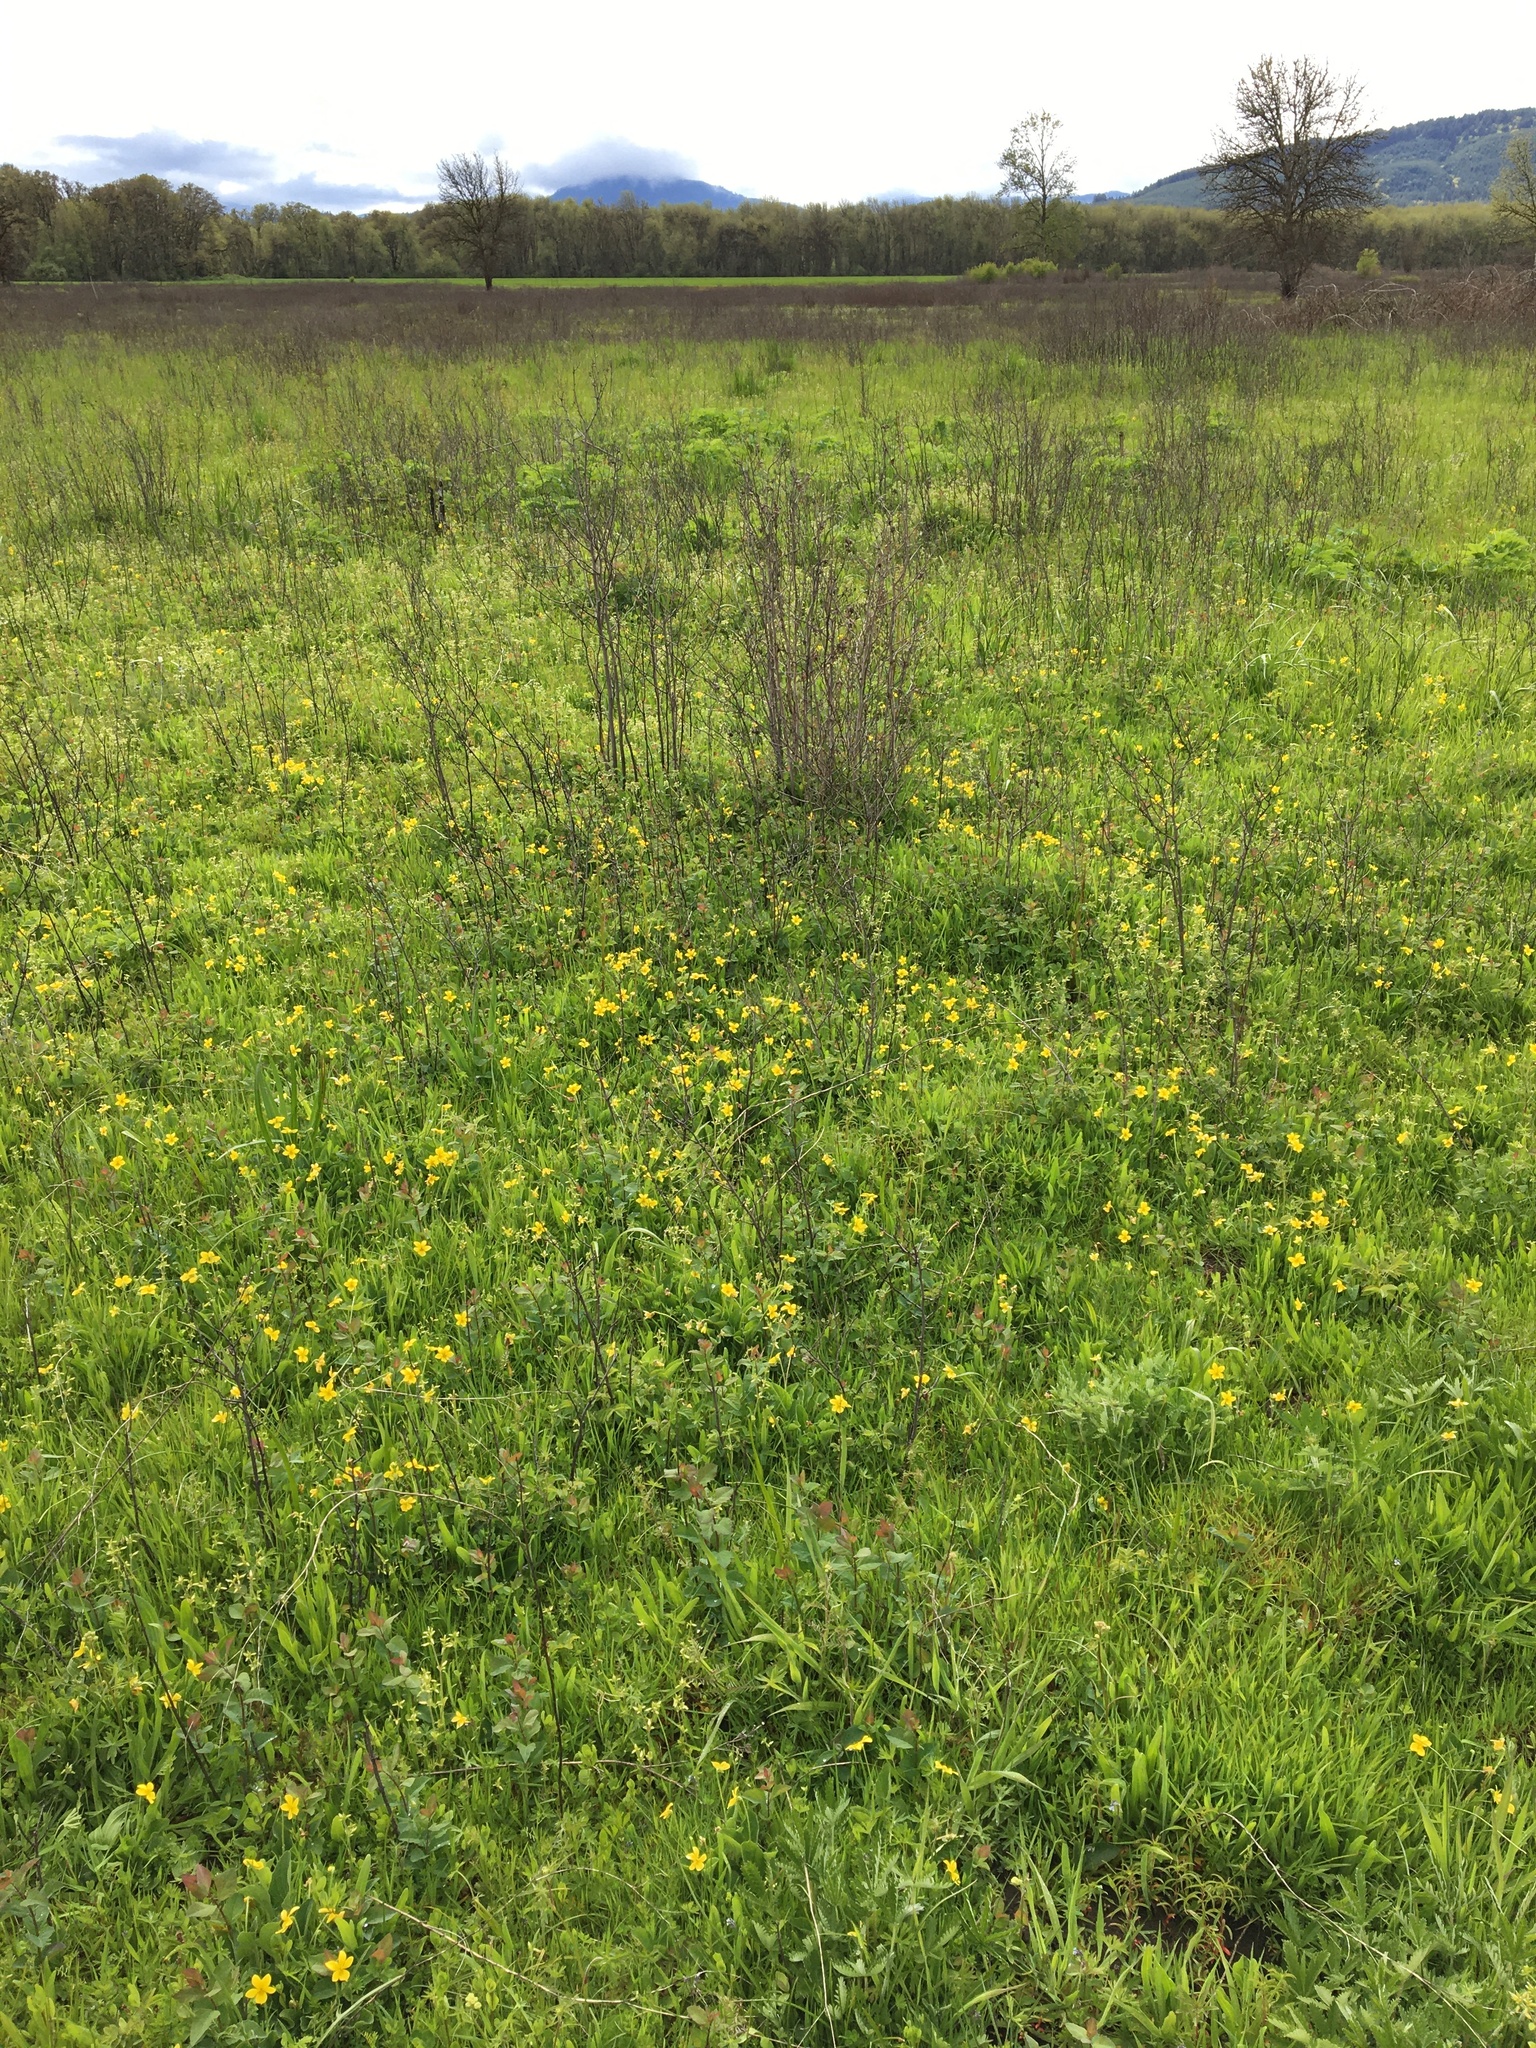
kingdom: Plantae
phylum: Tracheophyta
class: Magnoliopsida
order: Malpighiales
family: Violaceae
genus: Viola
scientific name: Viola praemorsa
